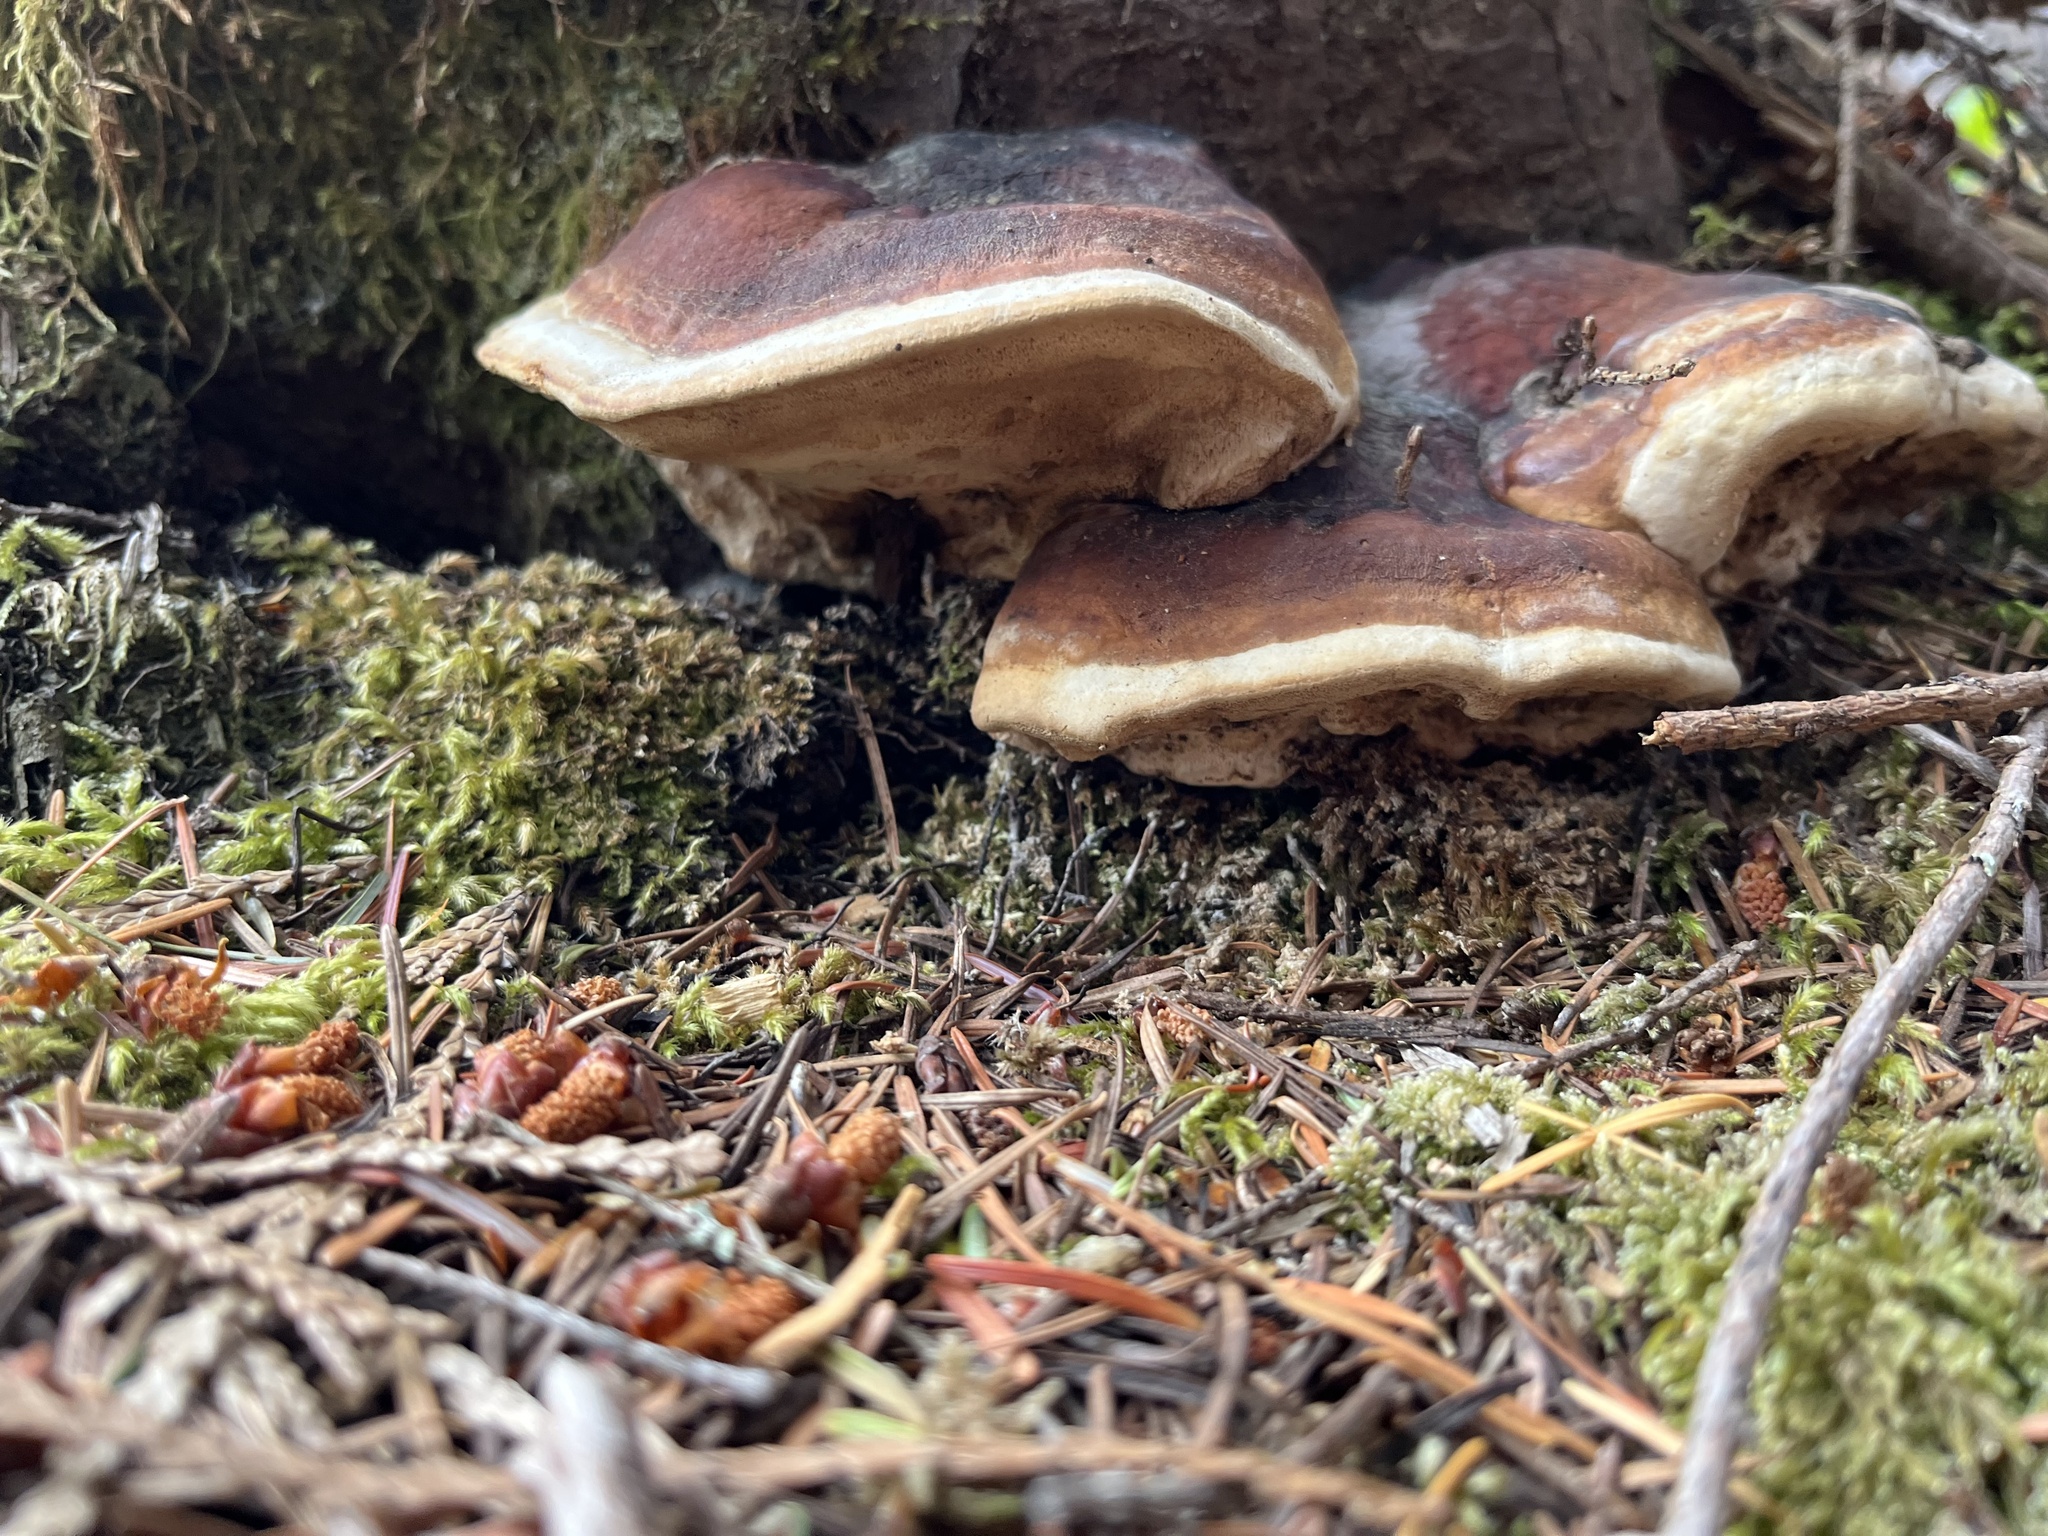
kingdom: Fungi
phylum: Basidiomycota
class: Agaricomycetes
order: Polyporales
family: Fomitopsidaceae
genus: Fomitopsis
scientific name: Fomitopsis mounceae
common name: Northern red belt
